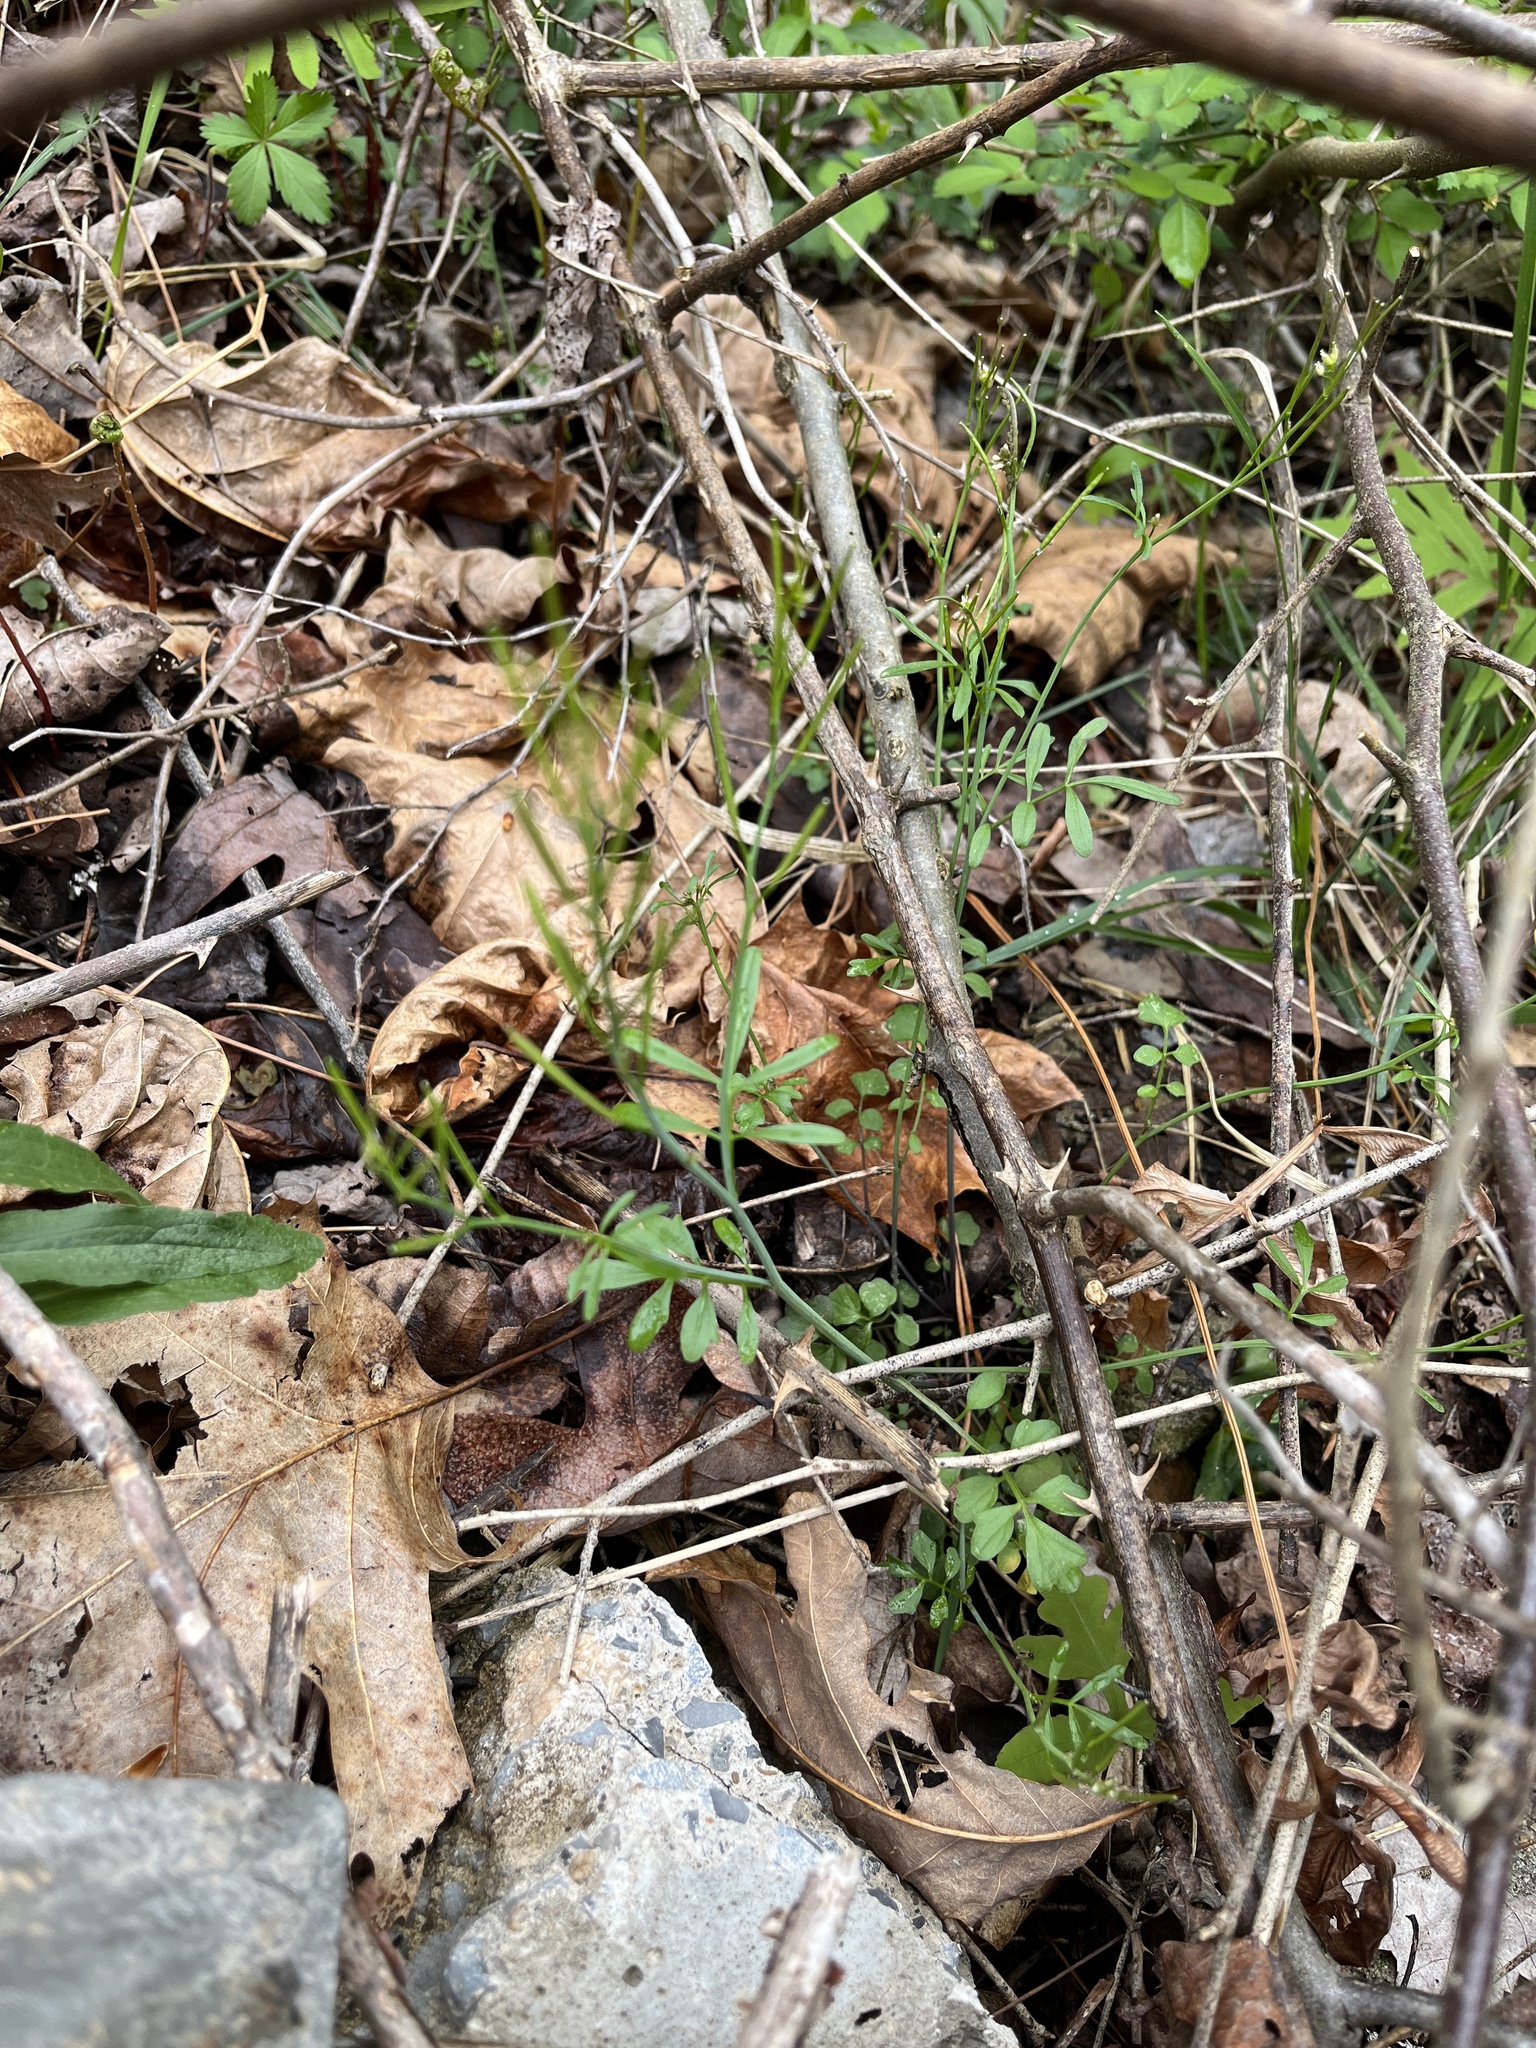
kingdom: Plantae
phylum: Tracheophyta
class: Magnoliopsida
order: Brassicales
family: Brassicaceae
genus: Cardamine
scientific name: Cardamine hirsuta
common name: Hairy bittercress
